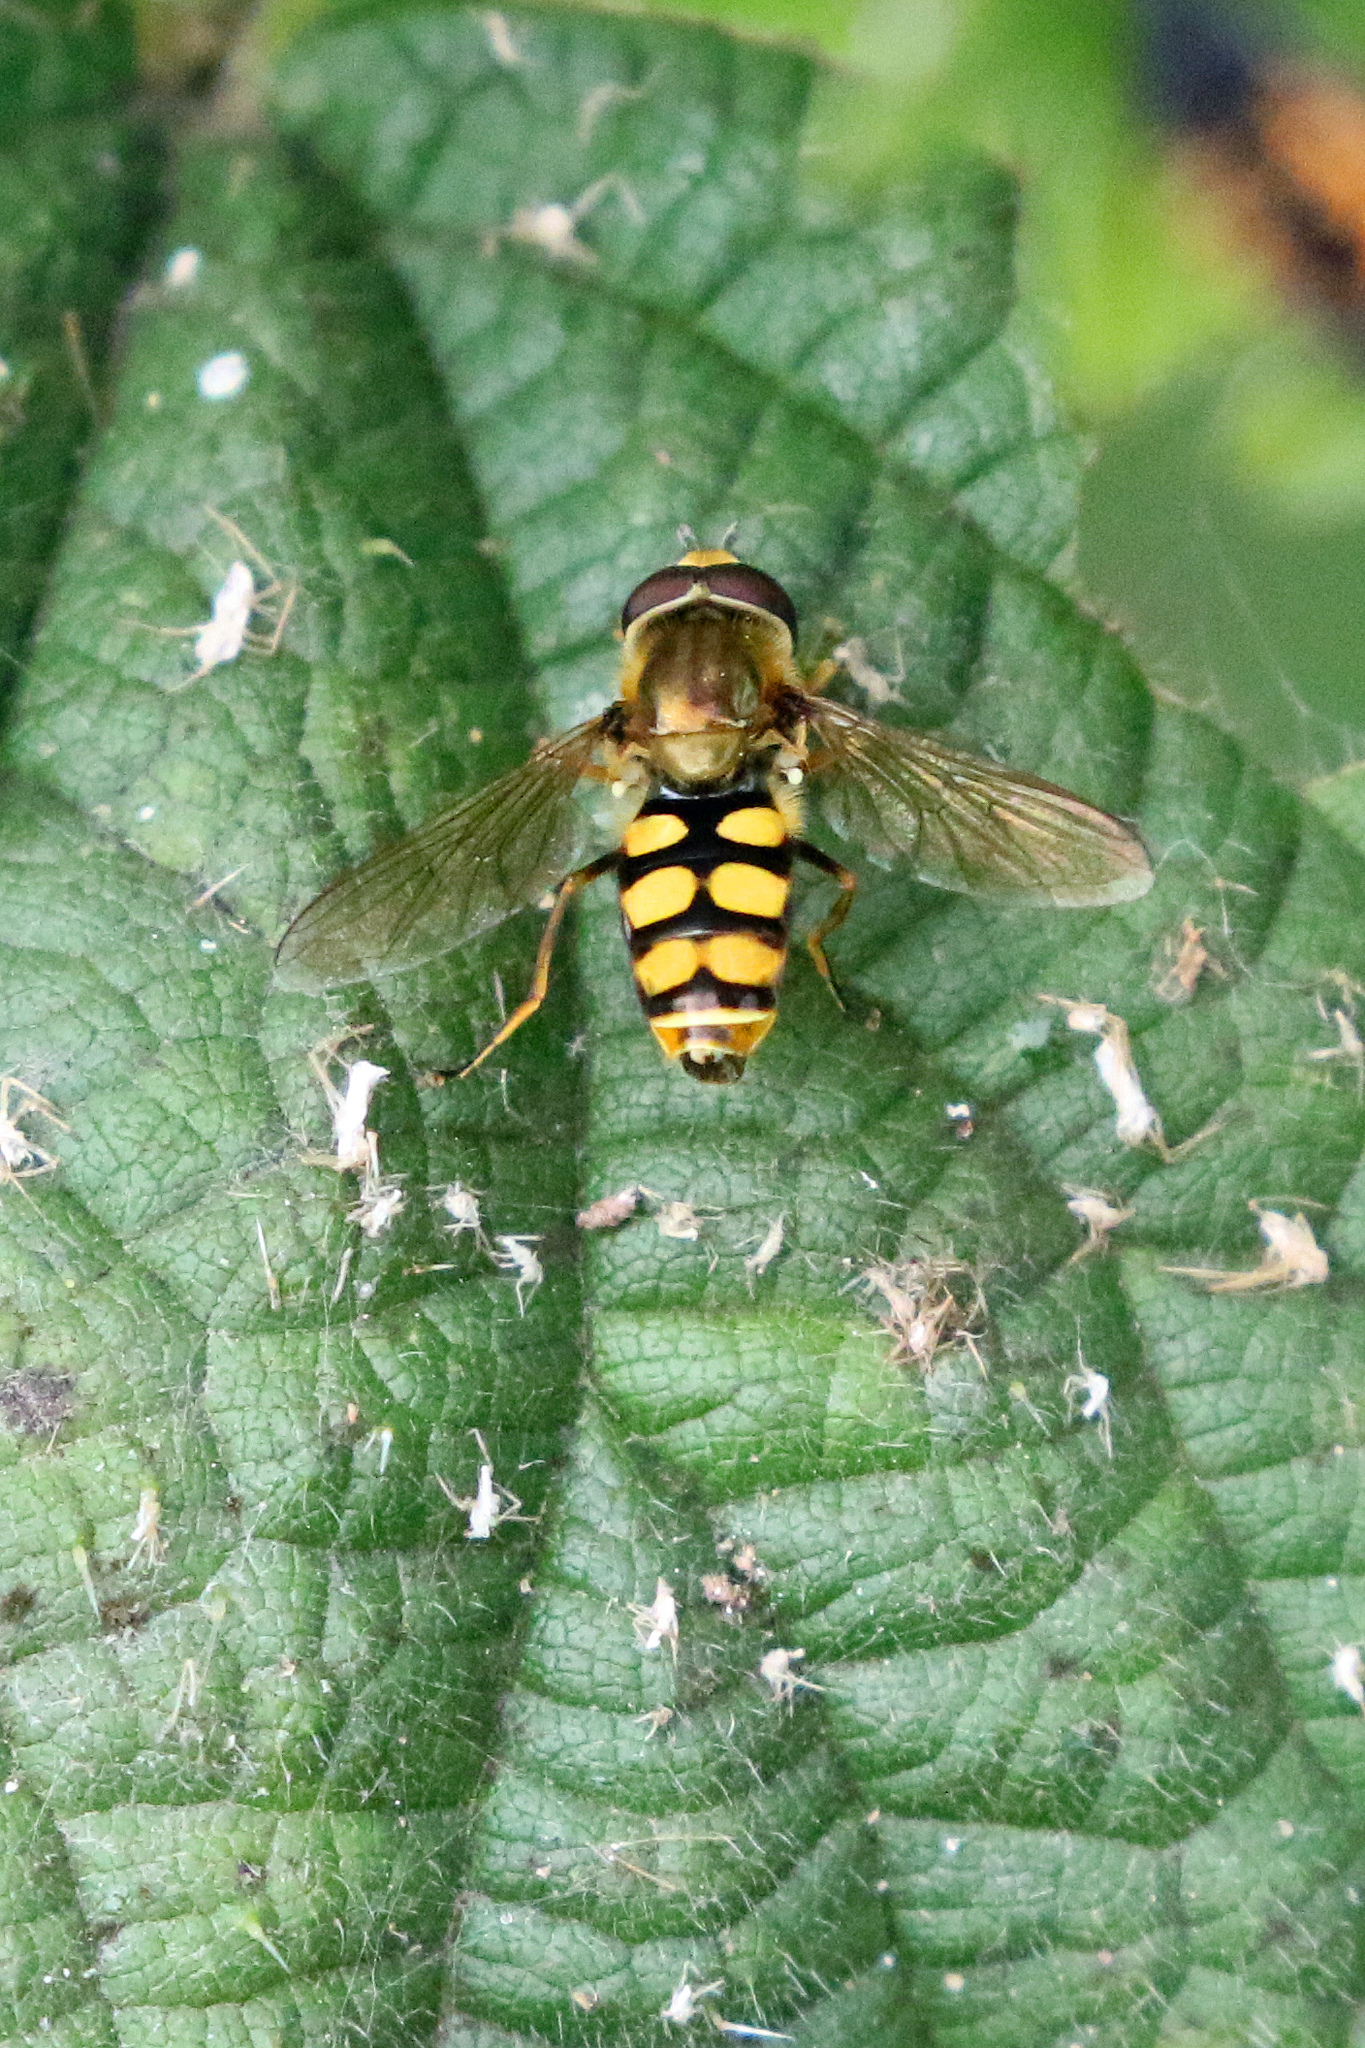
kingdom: Animalia
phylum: Arthropoda
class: Insecta
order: Diptera
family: Syrphidae
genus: Eupeodes
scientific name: Eupeodes corollae
